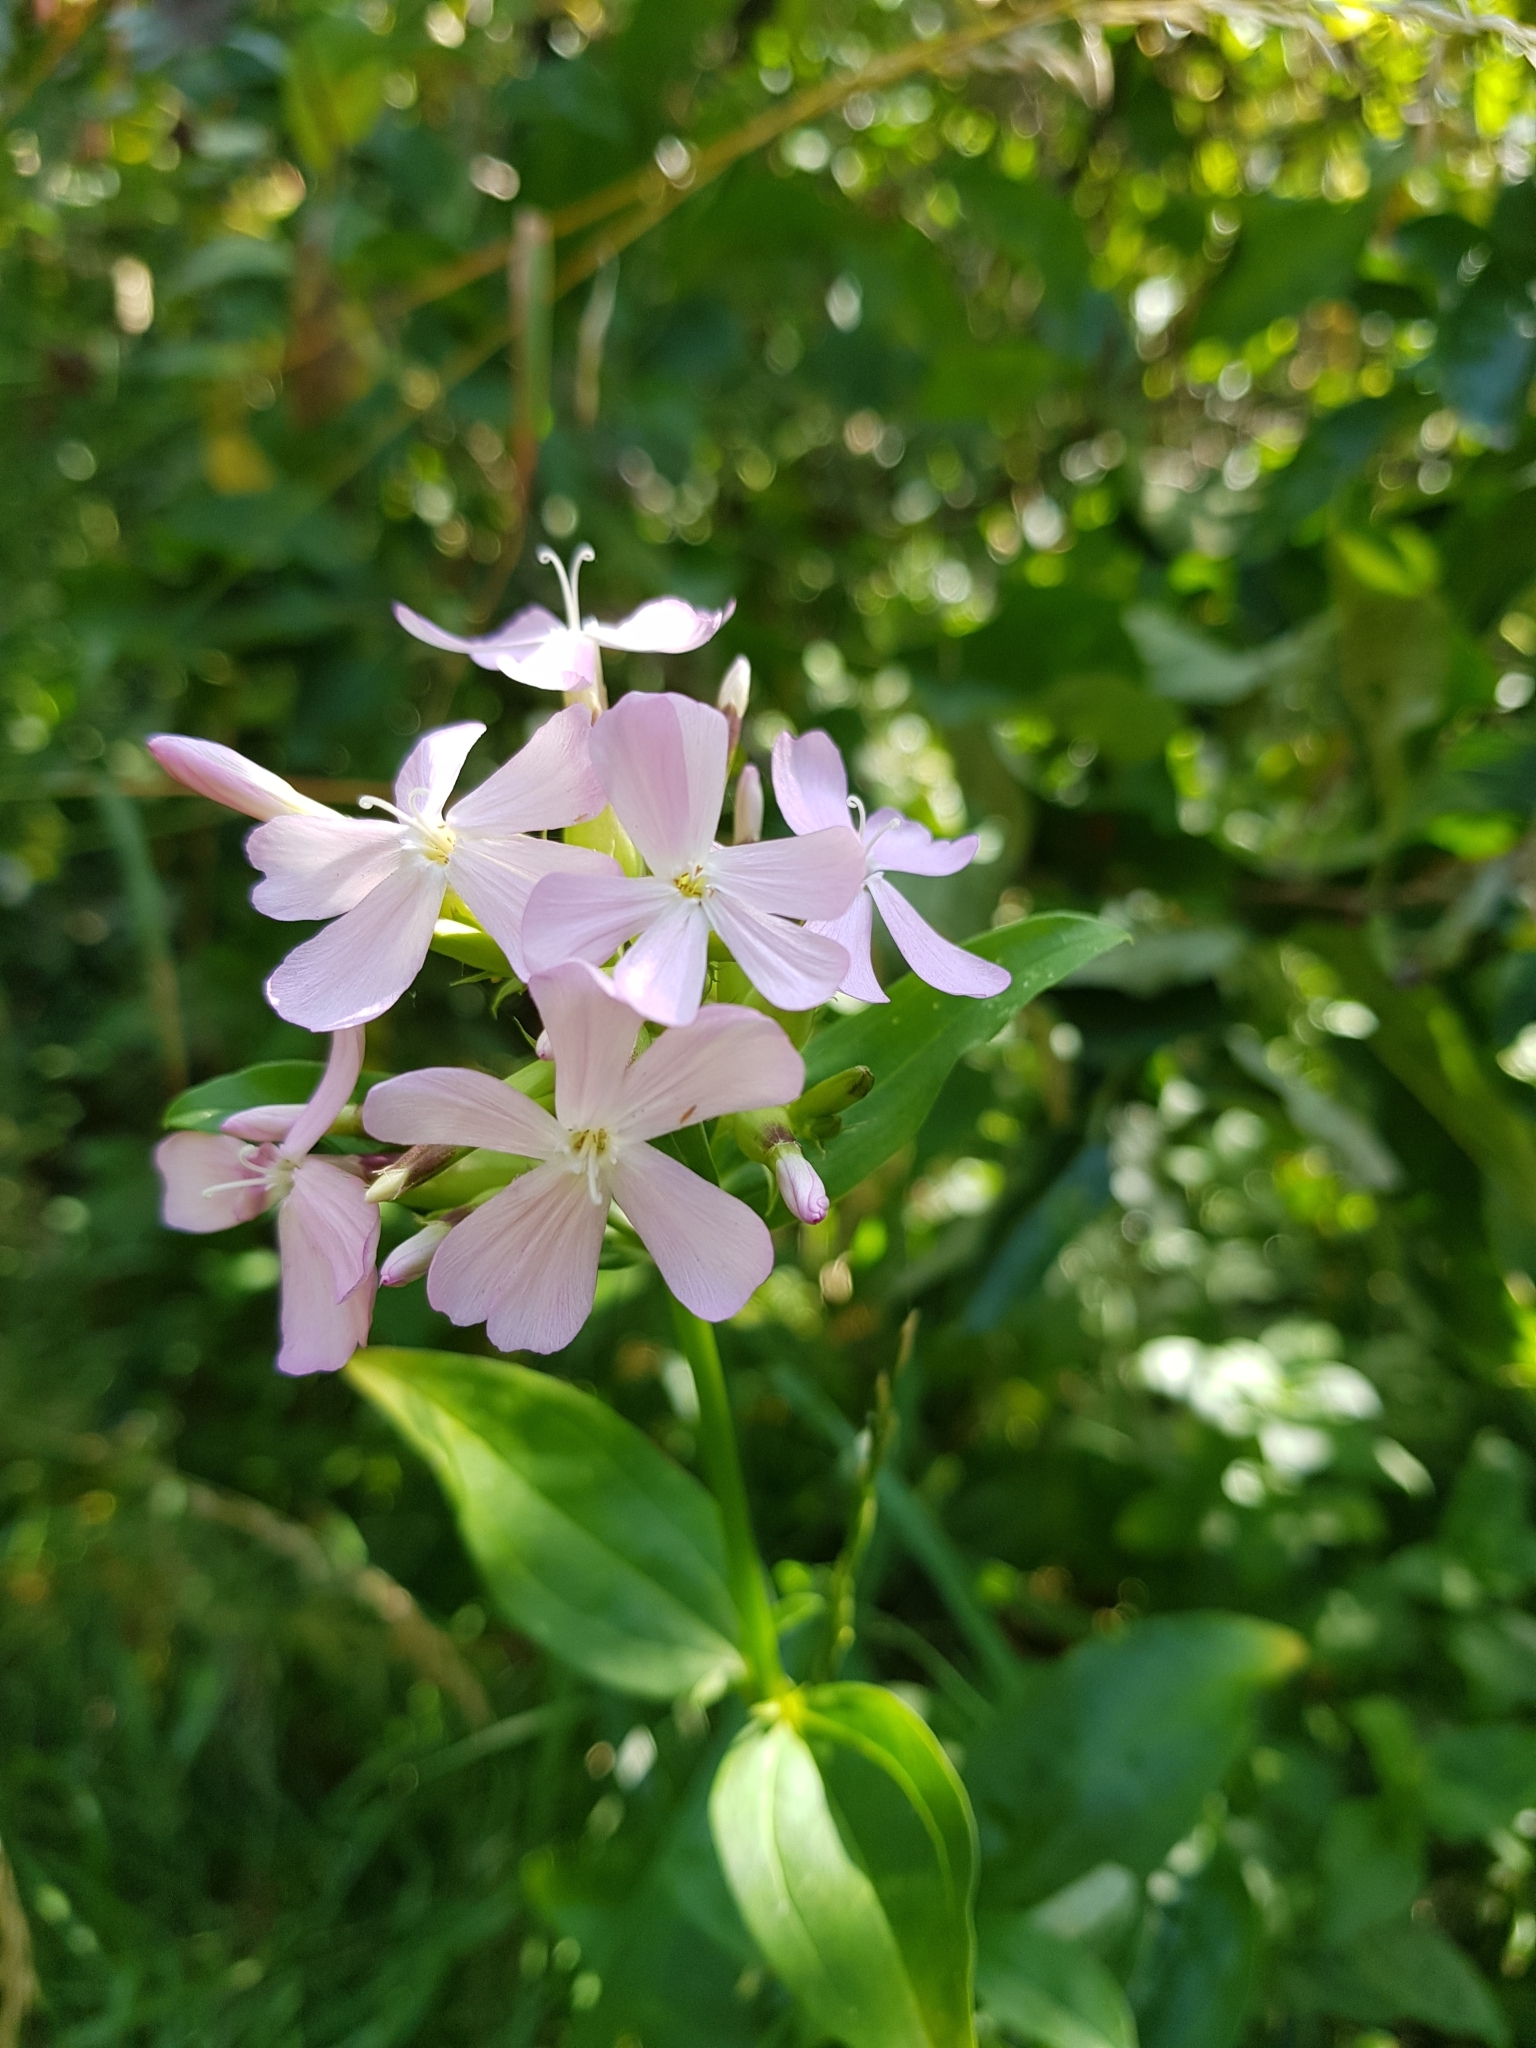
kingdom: Plantae
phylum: Tracheophyta
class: Magnoliopsida
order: Caryophyllales
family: Caryophyllaceae
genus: Saponaria
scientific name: Saponaria officinalis
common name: Soapwort
